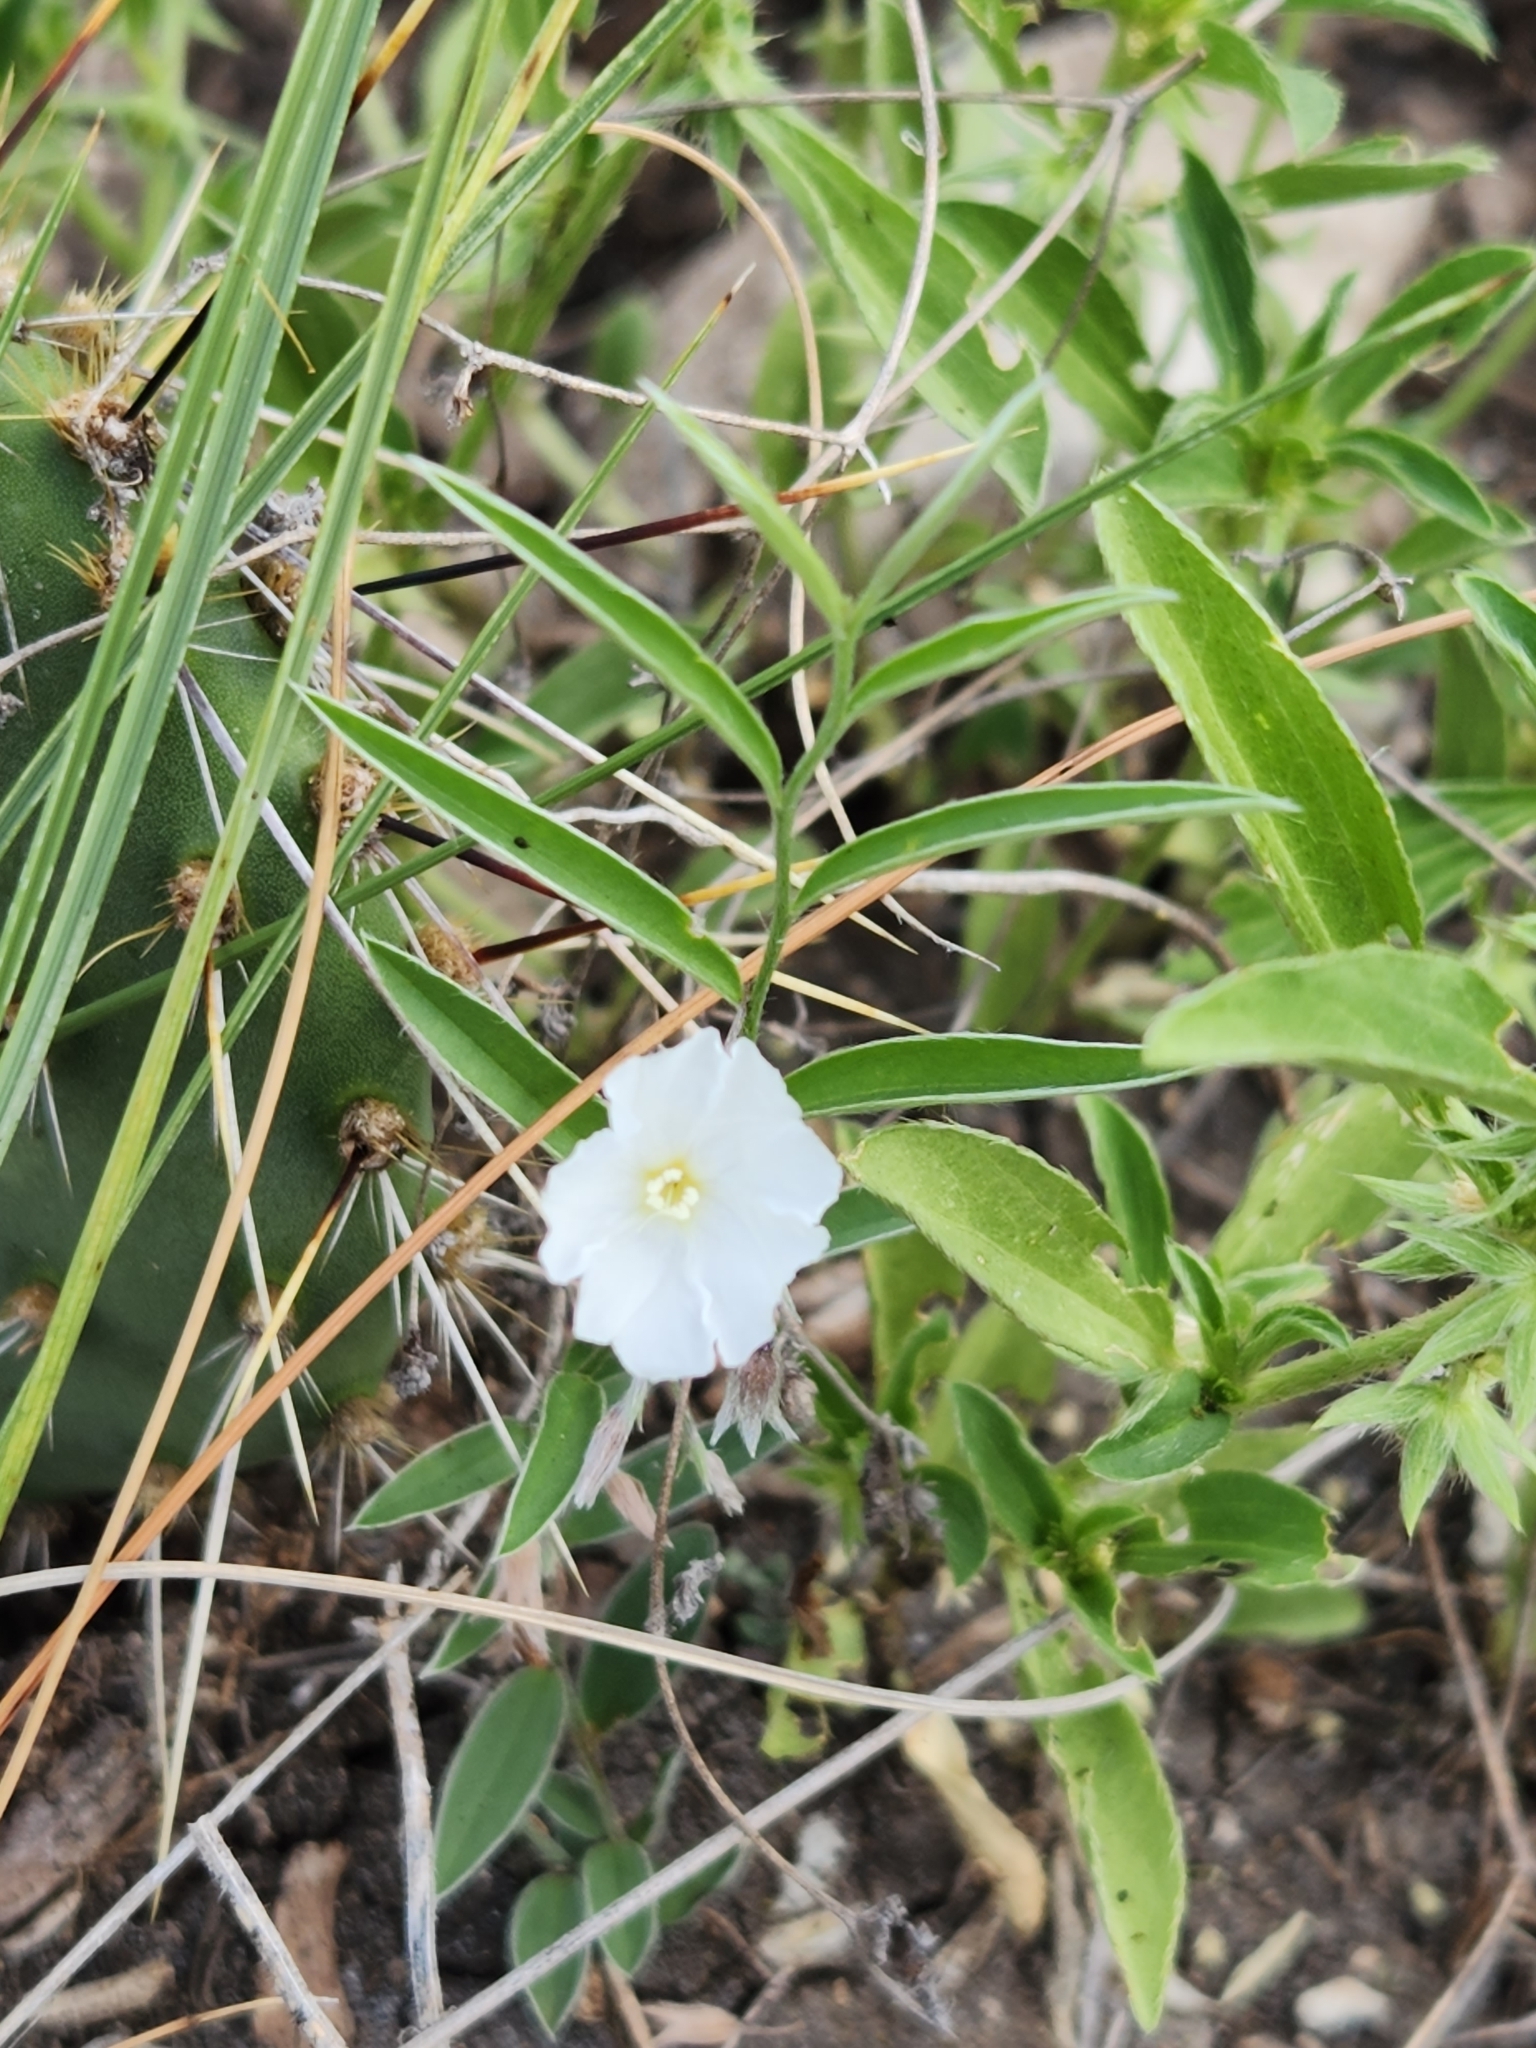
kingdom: Plantae
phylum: Tracheophyta
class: Magnoliopsida
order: Solanales
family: Convolvulaceae
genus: Evolvulus
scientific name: Evolvulus sericeus
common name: Blue dots
